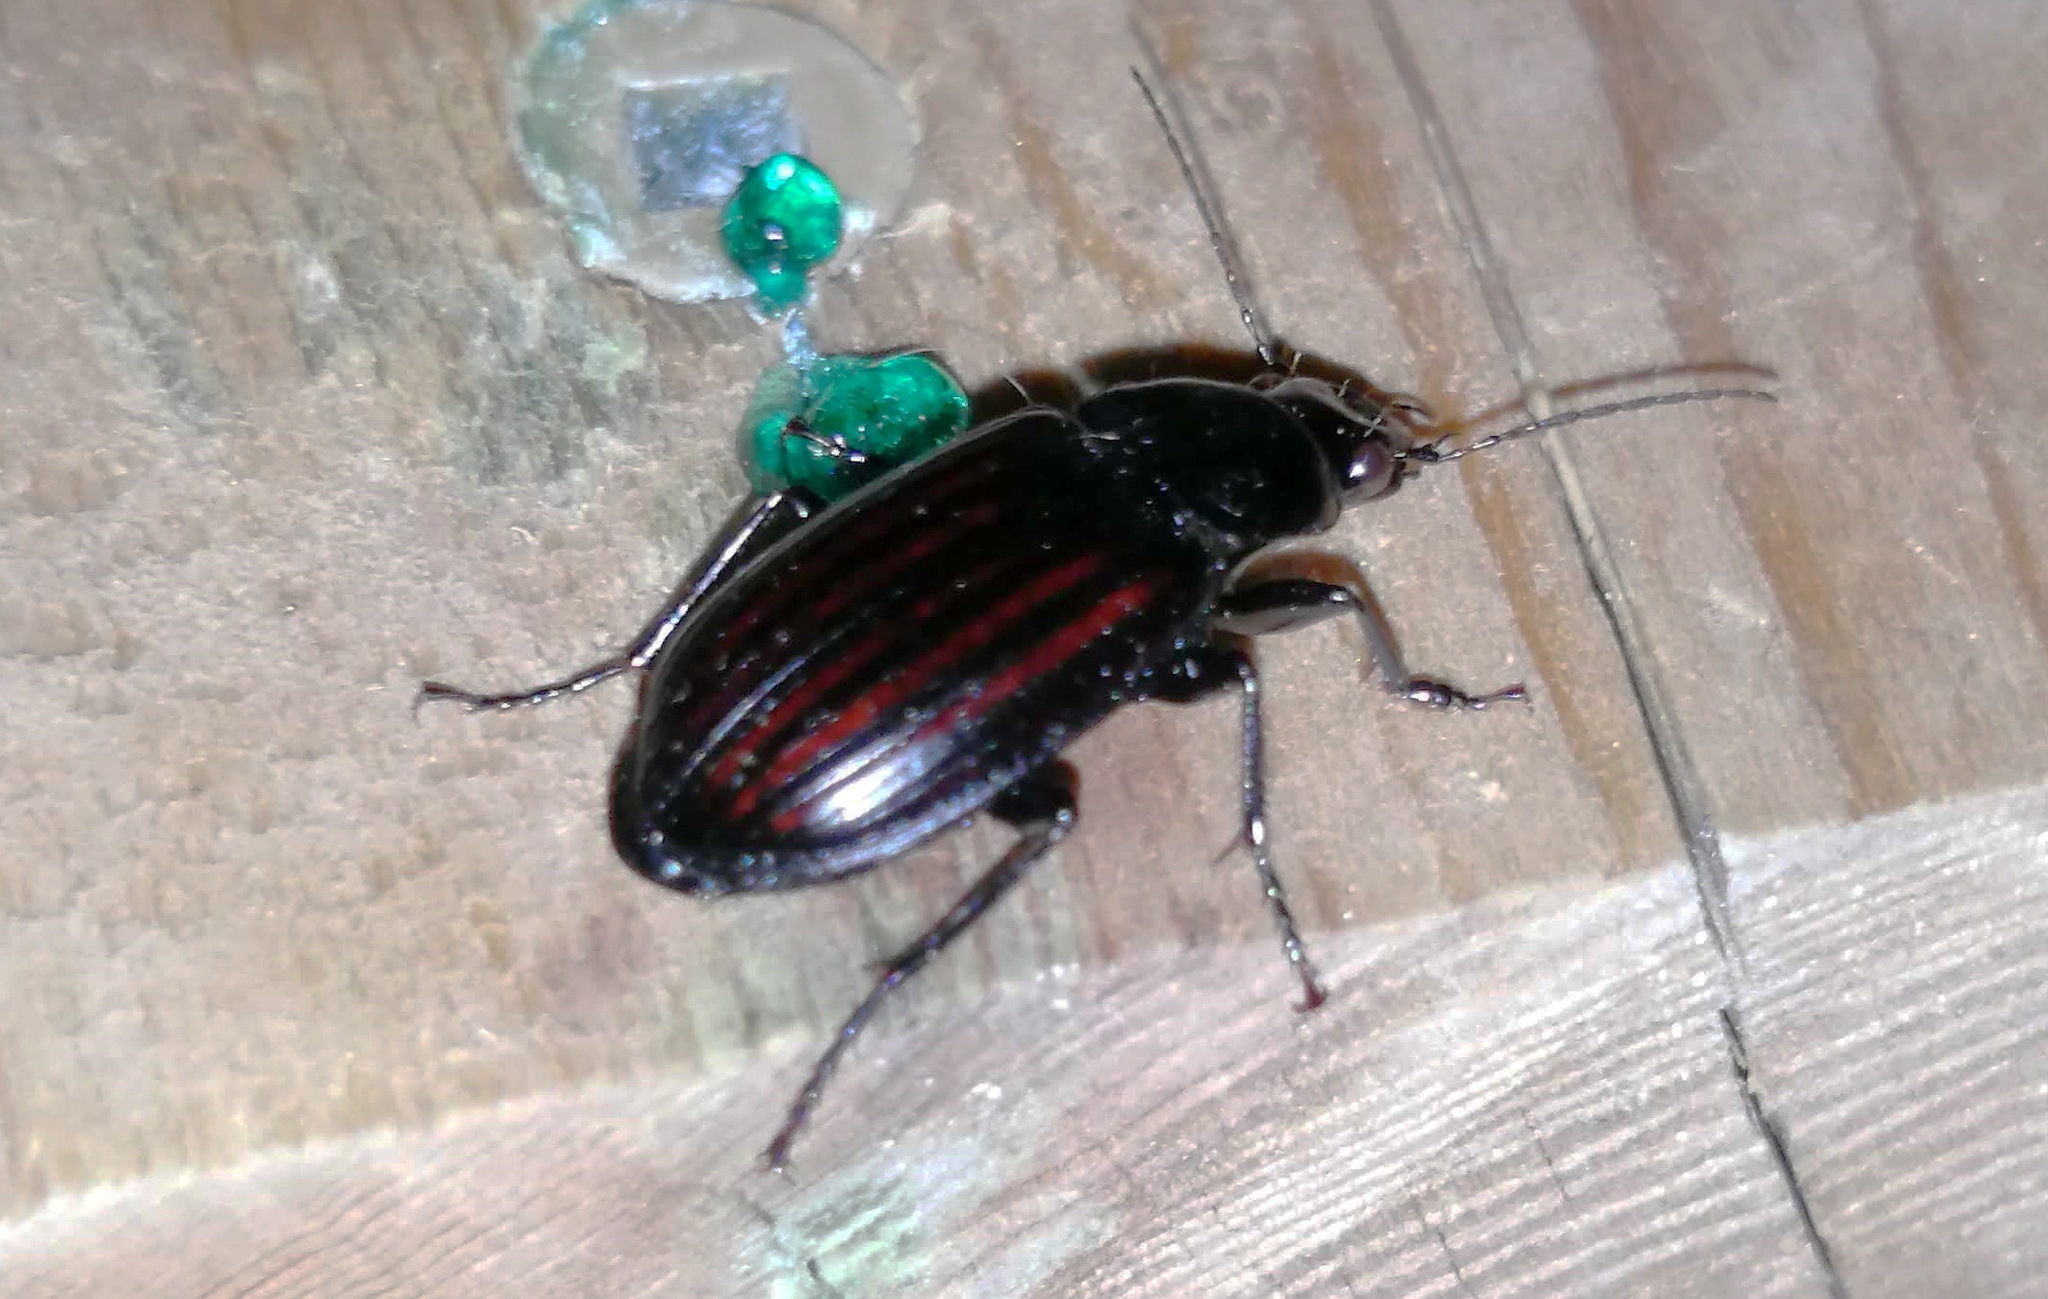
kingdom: Animalia
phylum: Arthropoda
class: Insecta
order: Coleoptera
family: Carabidae
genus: Diplocheila
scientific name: Diplocheila striatopunctata
